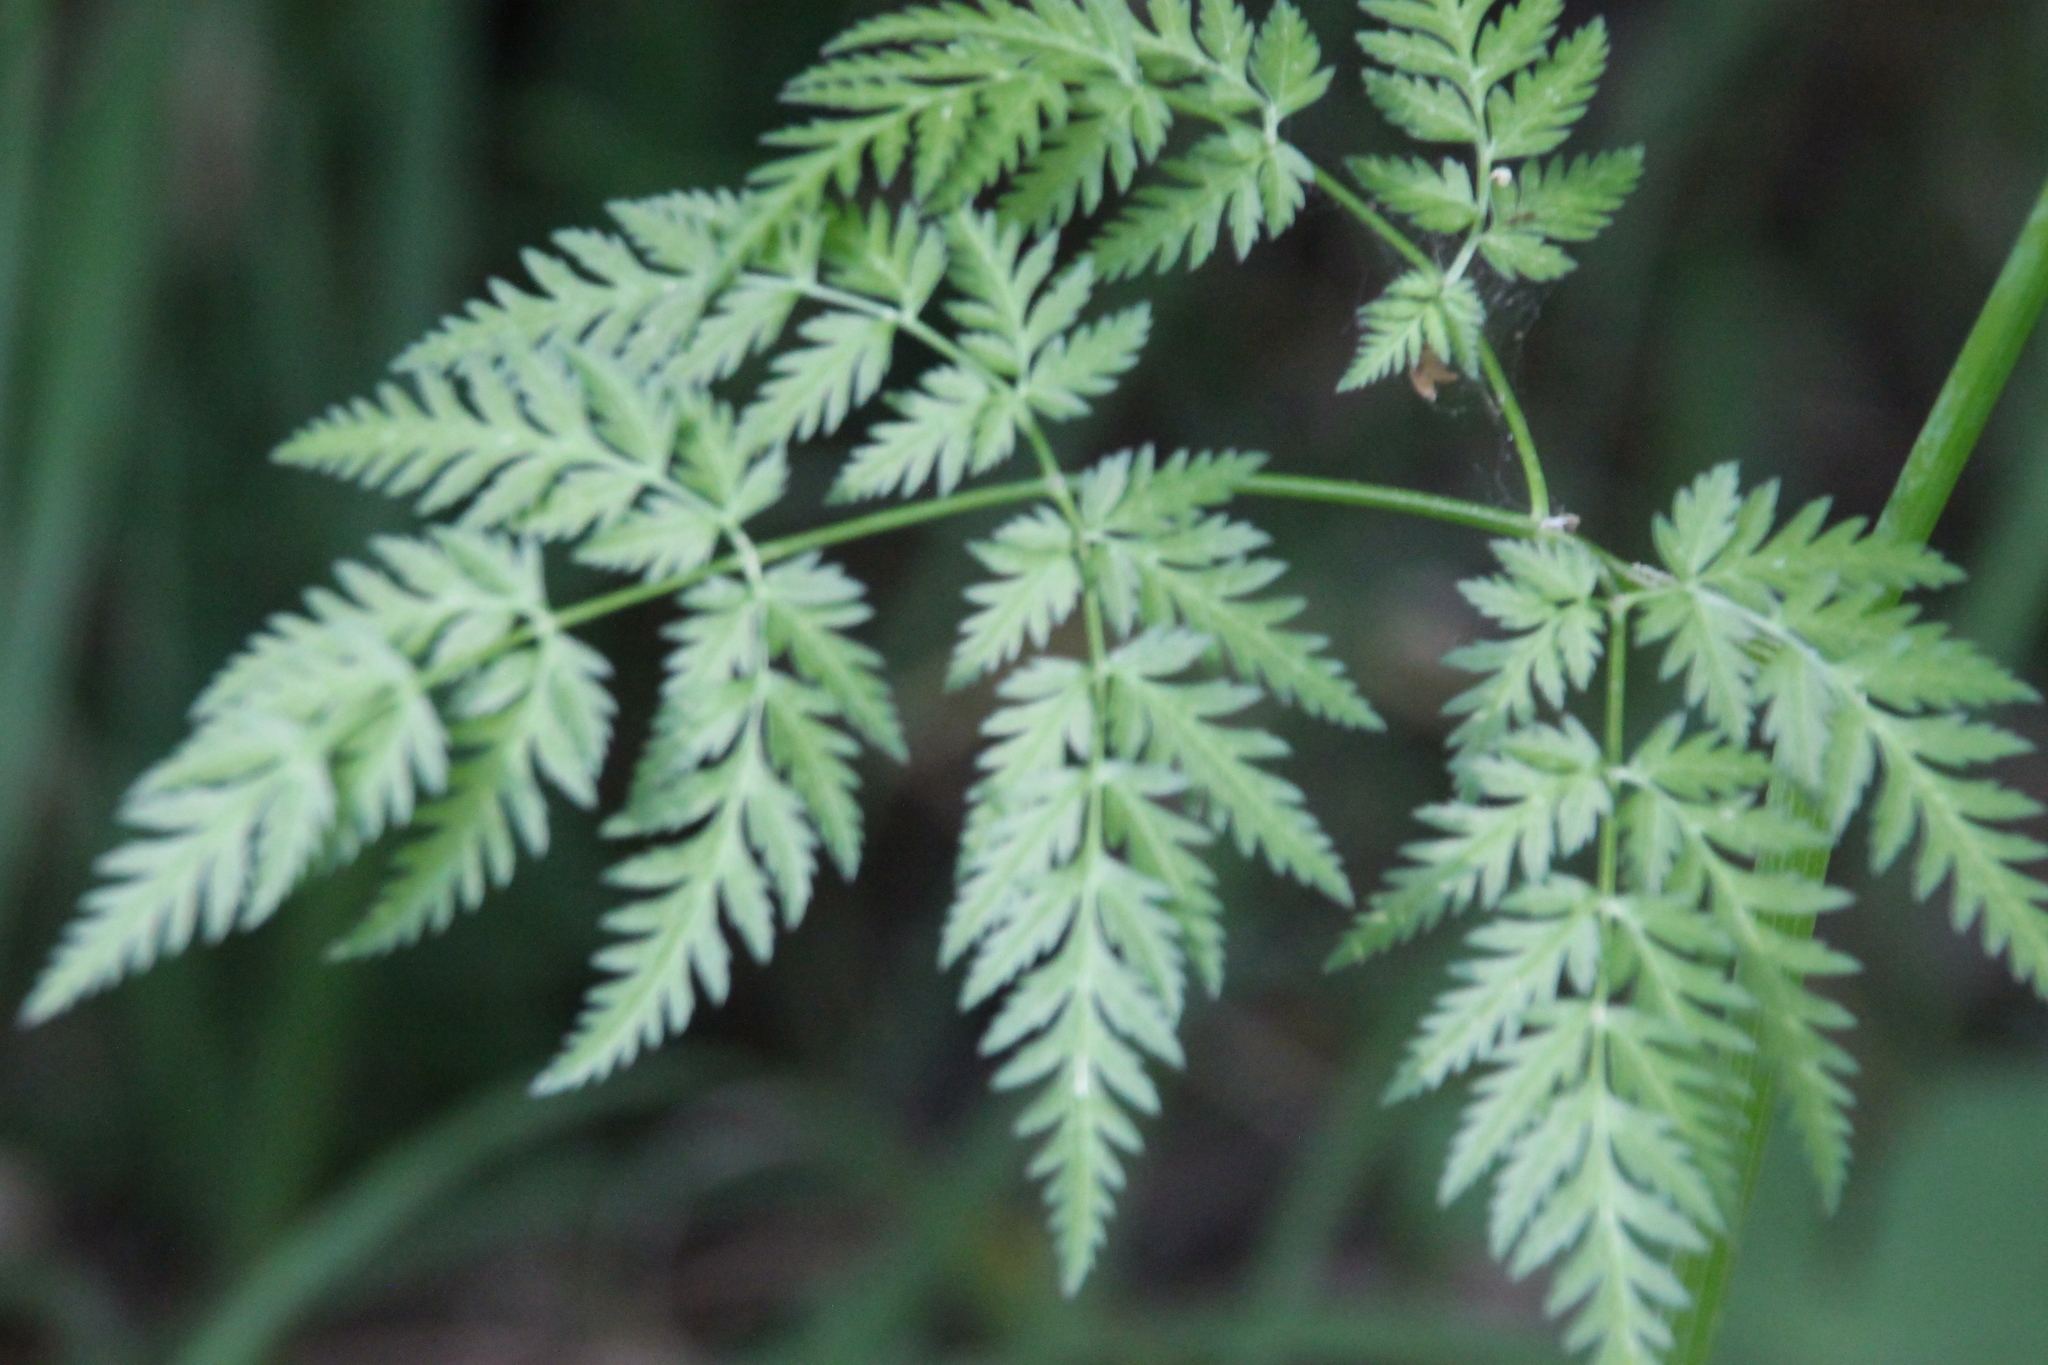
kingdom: Plantae
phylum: Tracheophyta
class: Magnoliopsida
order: Apiales
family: Apiaceae
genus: Anthriscus
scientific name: Anthriscus sylvestris
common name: Cow parsley
